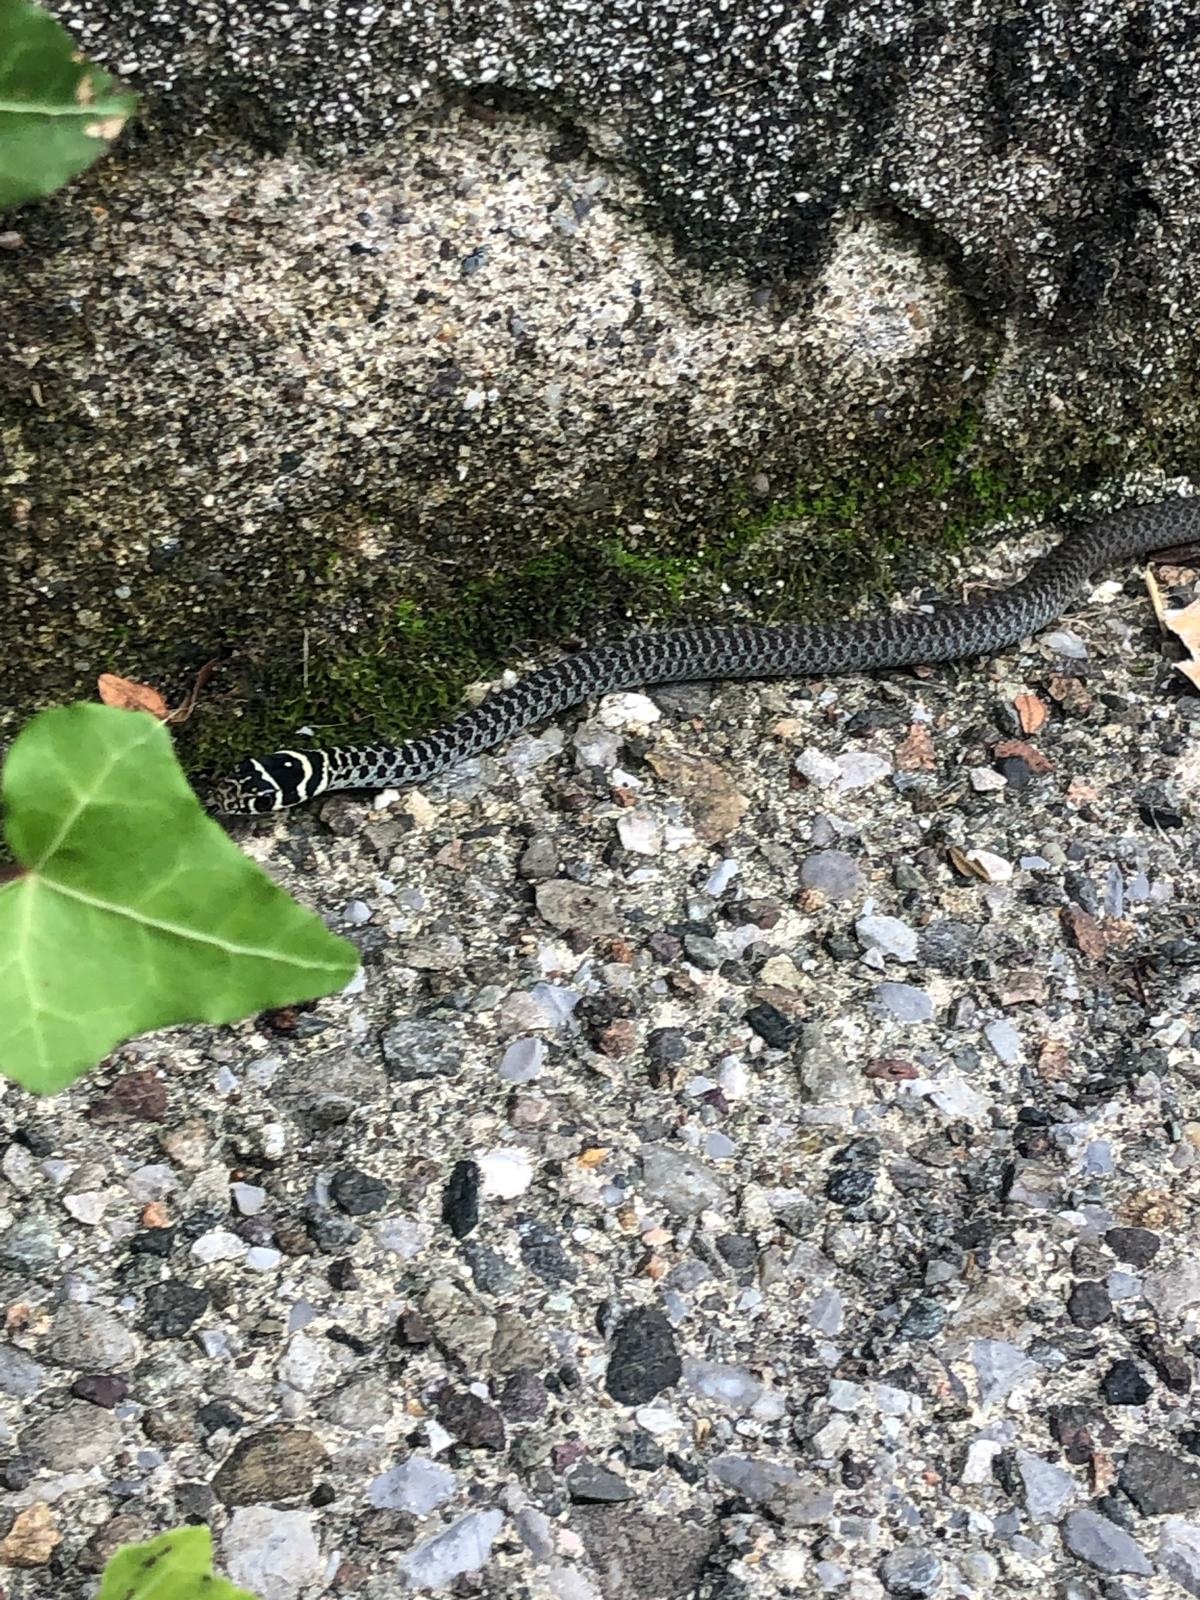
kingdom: Animalia
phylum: Chordata
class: Squamata
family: Colubridae
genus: Hierophis
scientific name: Hierophis viridiflavus
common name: Green whip snake
